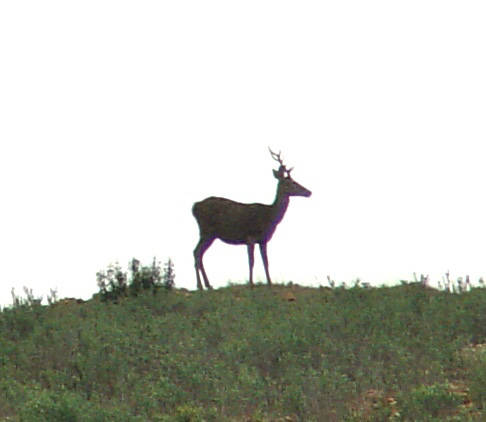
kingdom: Animalia
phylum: Chordata
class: Mammalia
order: Artiodactyla
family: Cervidae
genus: Cervus
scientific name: Cervus elaphus
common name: Red deer
